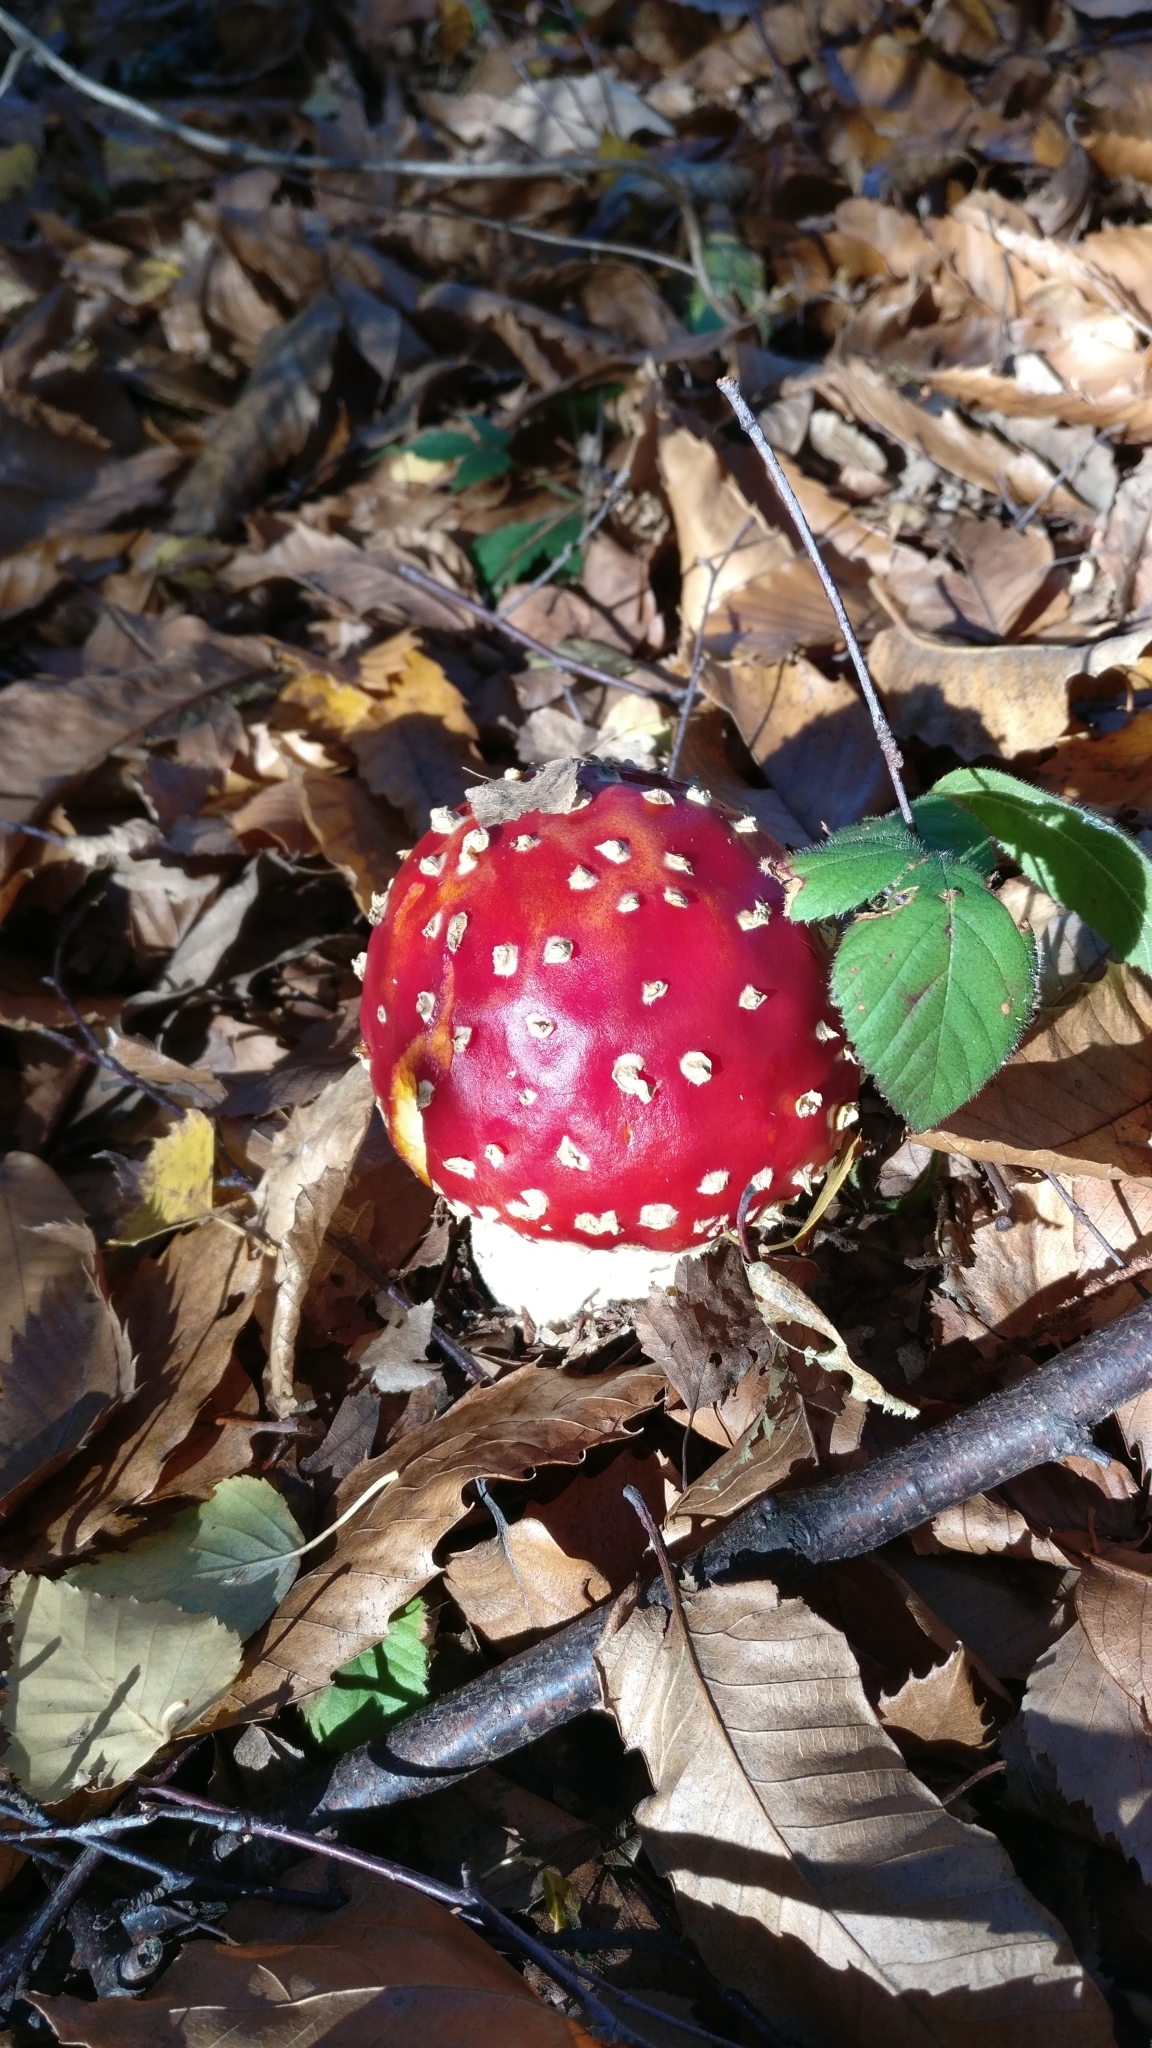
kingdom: Fungi
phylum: Basidiomycota
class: Agaricomycetes
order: Agaricales
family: Amanitaceae
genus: Amanita
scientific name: Amanita muscaria
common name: Fly agaric
